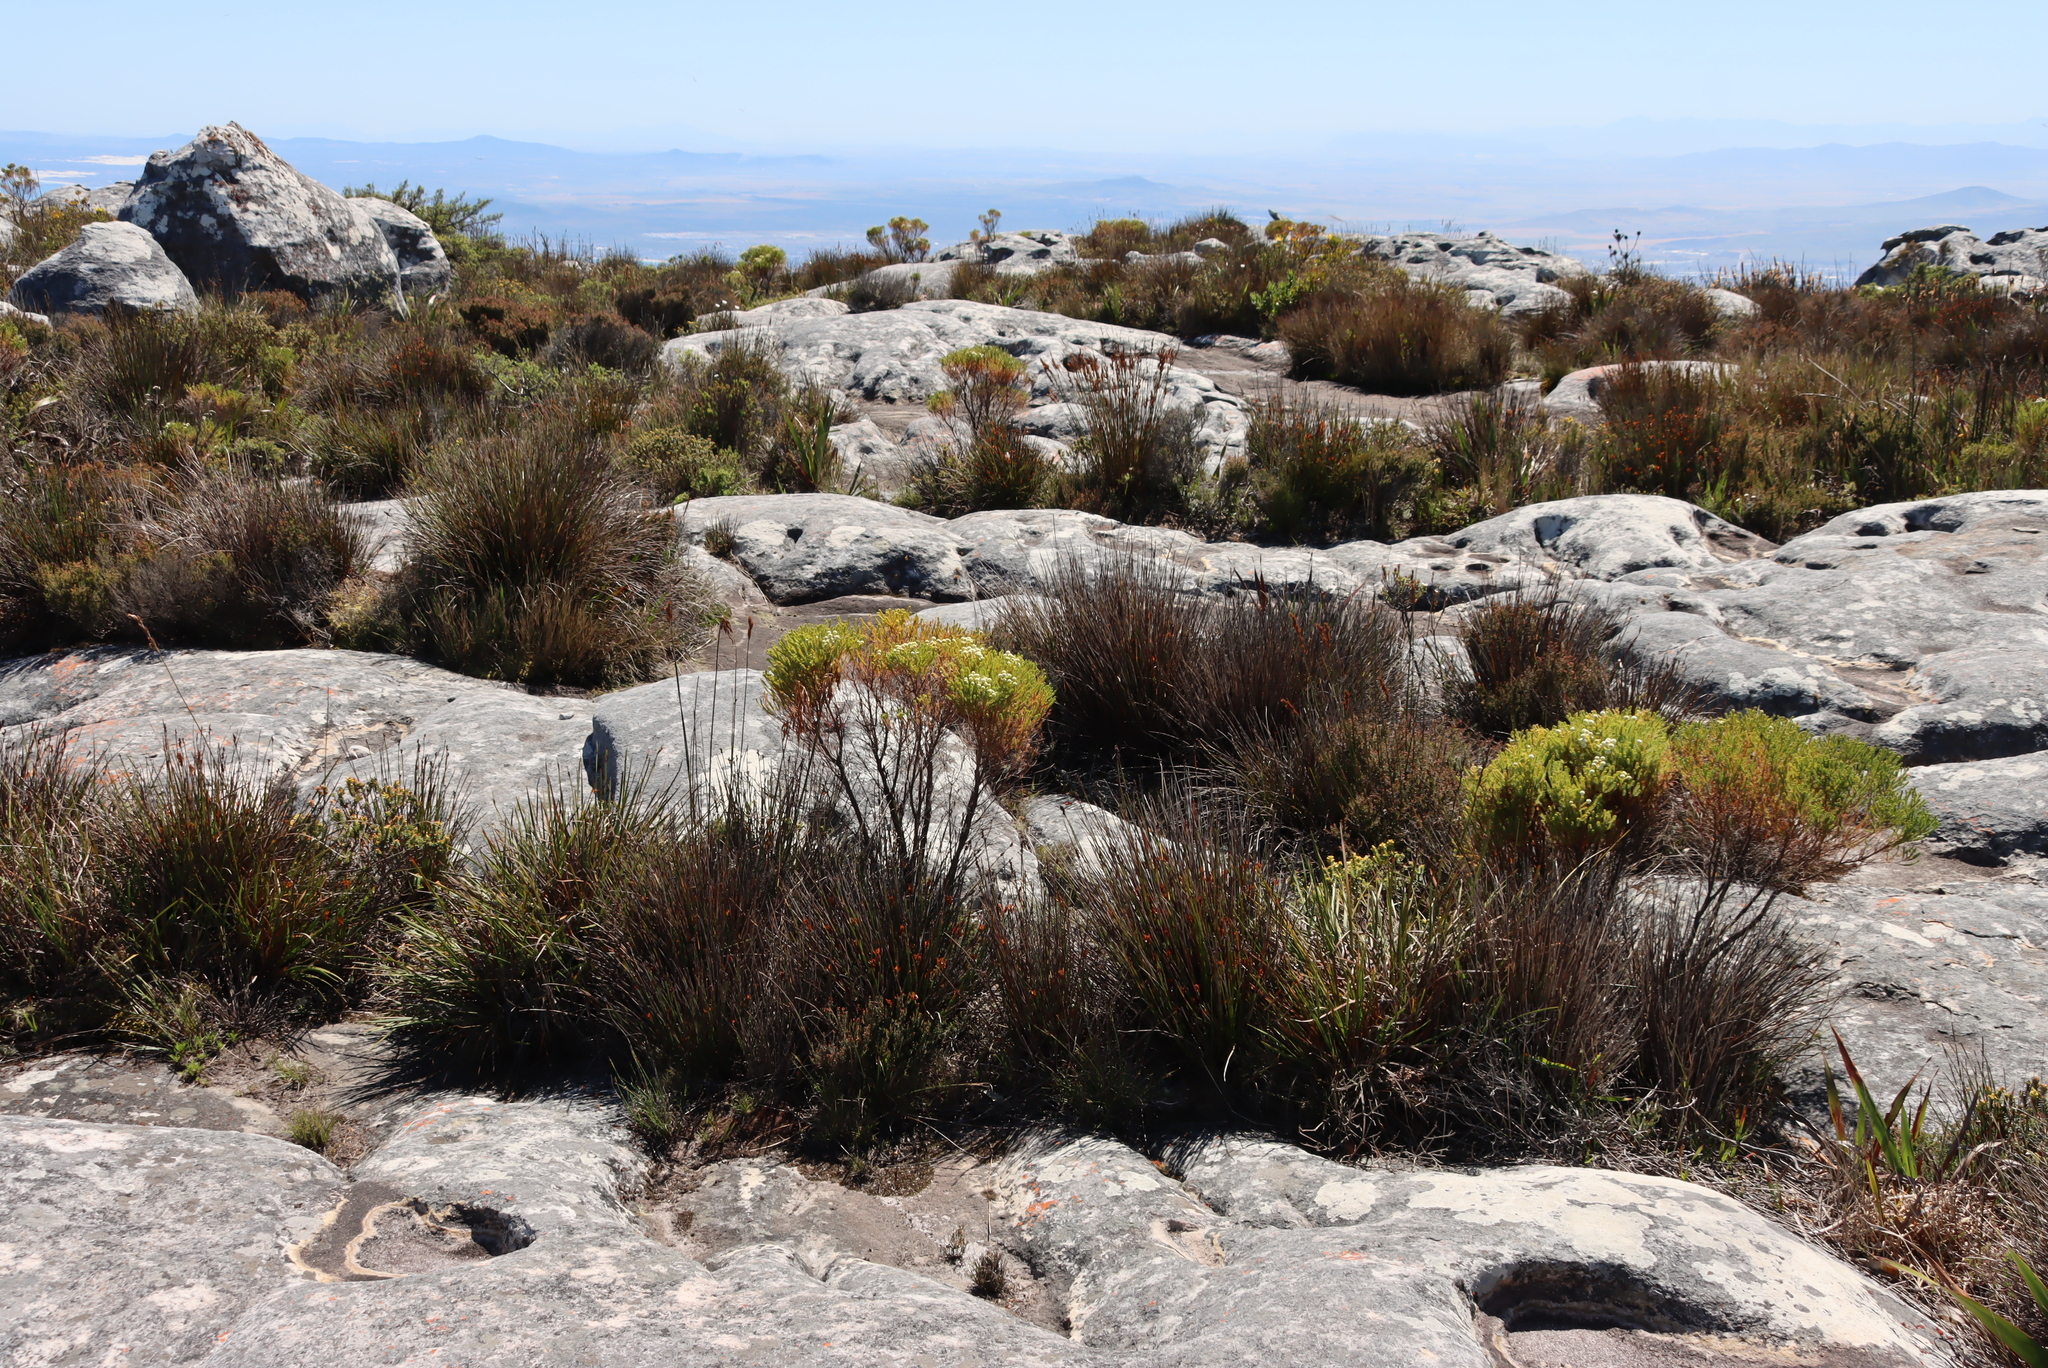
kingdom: Plantae
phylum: Tracheophyta
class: Magnoliopsida
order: Bruniales
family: Bruniaceae
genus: Berzelia
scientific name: Berzelia lanuginosa
